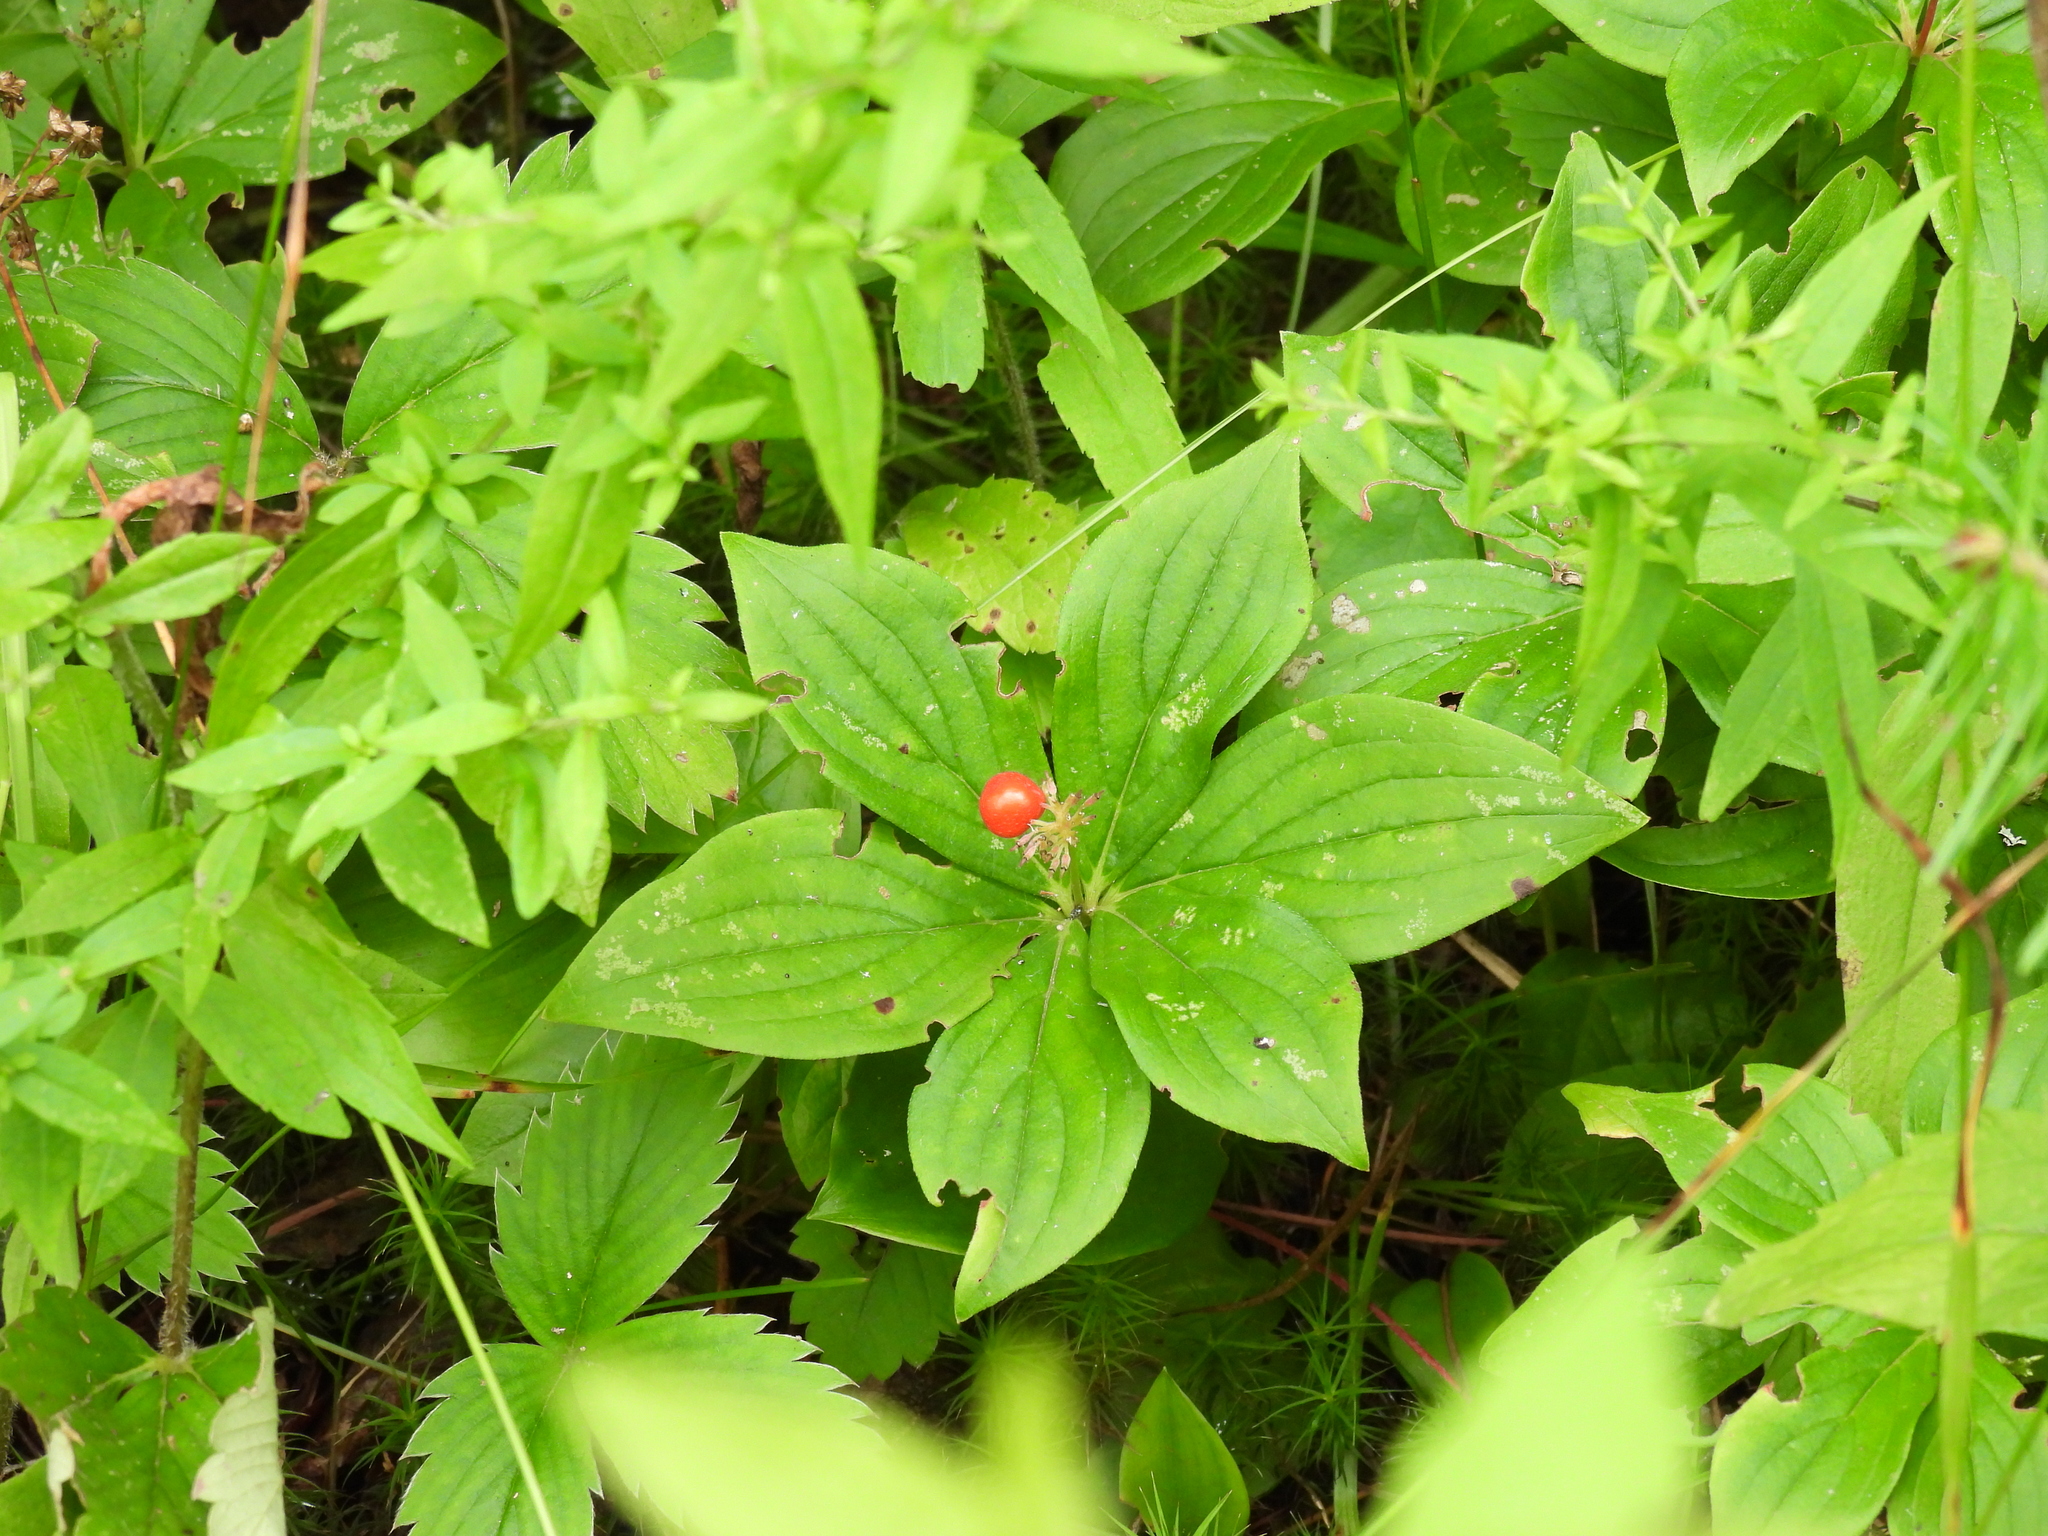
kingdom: Plantae
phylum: Tracheophyta
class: Magnoliopsida
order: Cornales
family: Cornaceae
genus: Cornus
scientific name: Cornus canadensis
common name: Creeping dogwood
